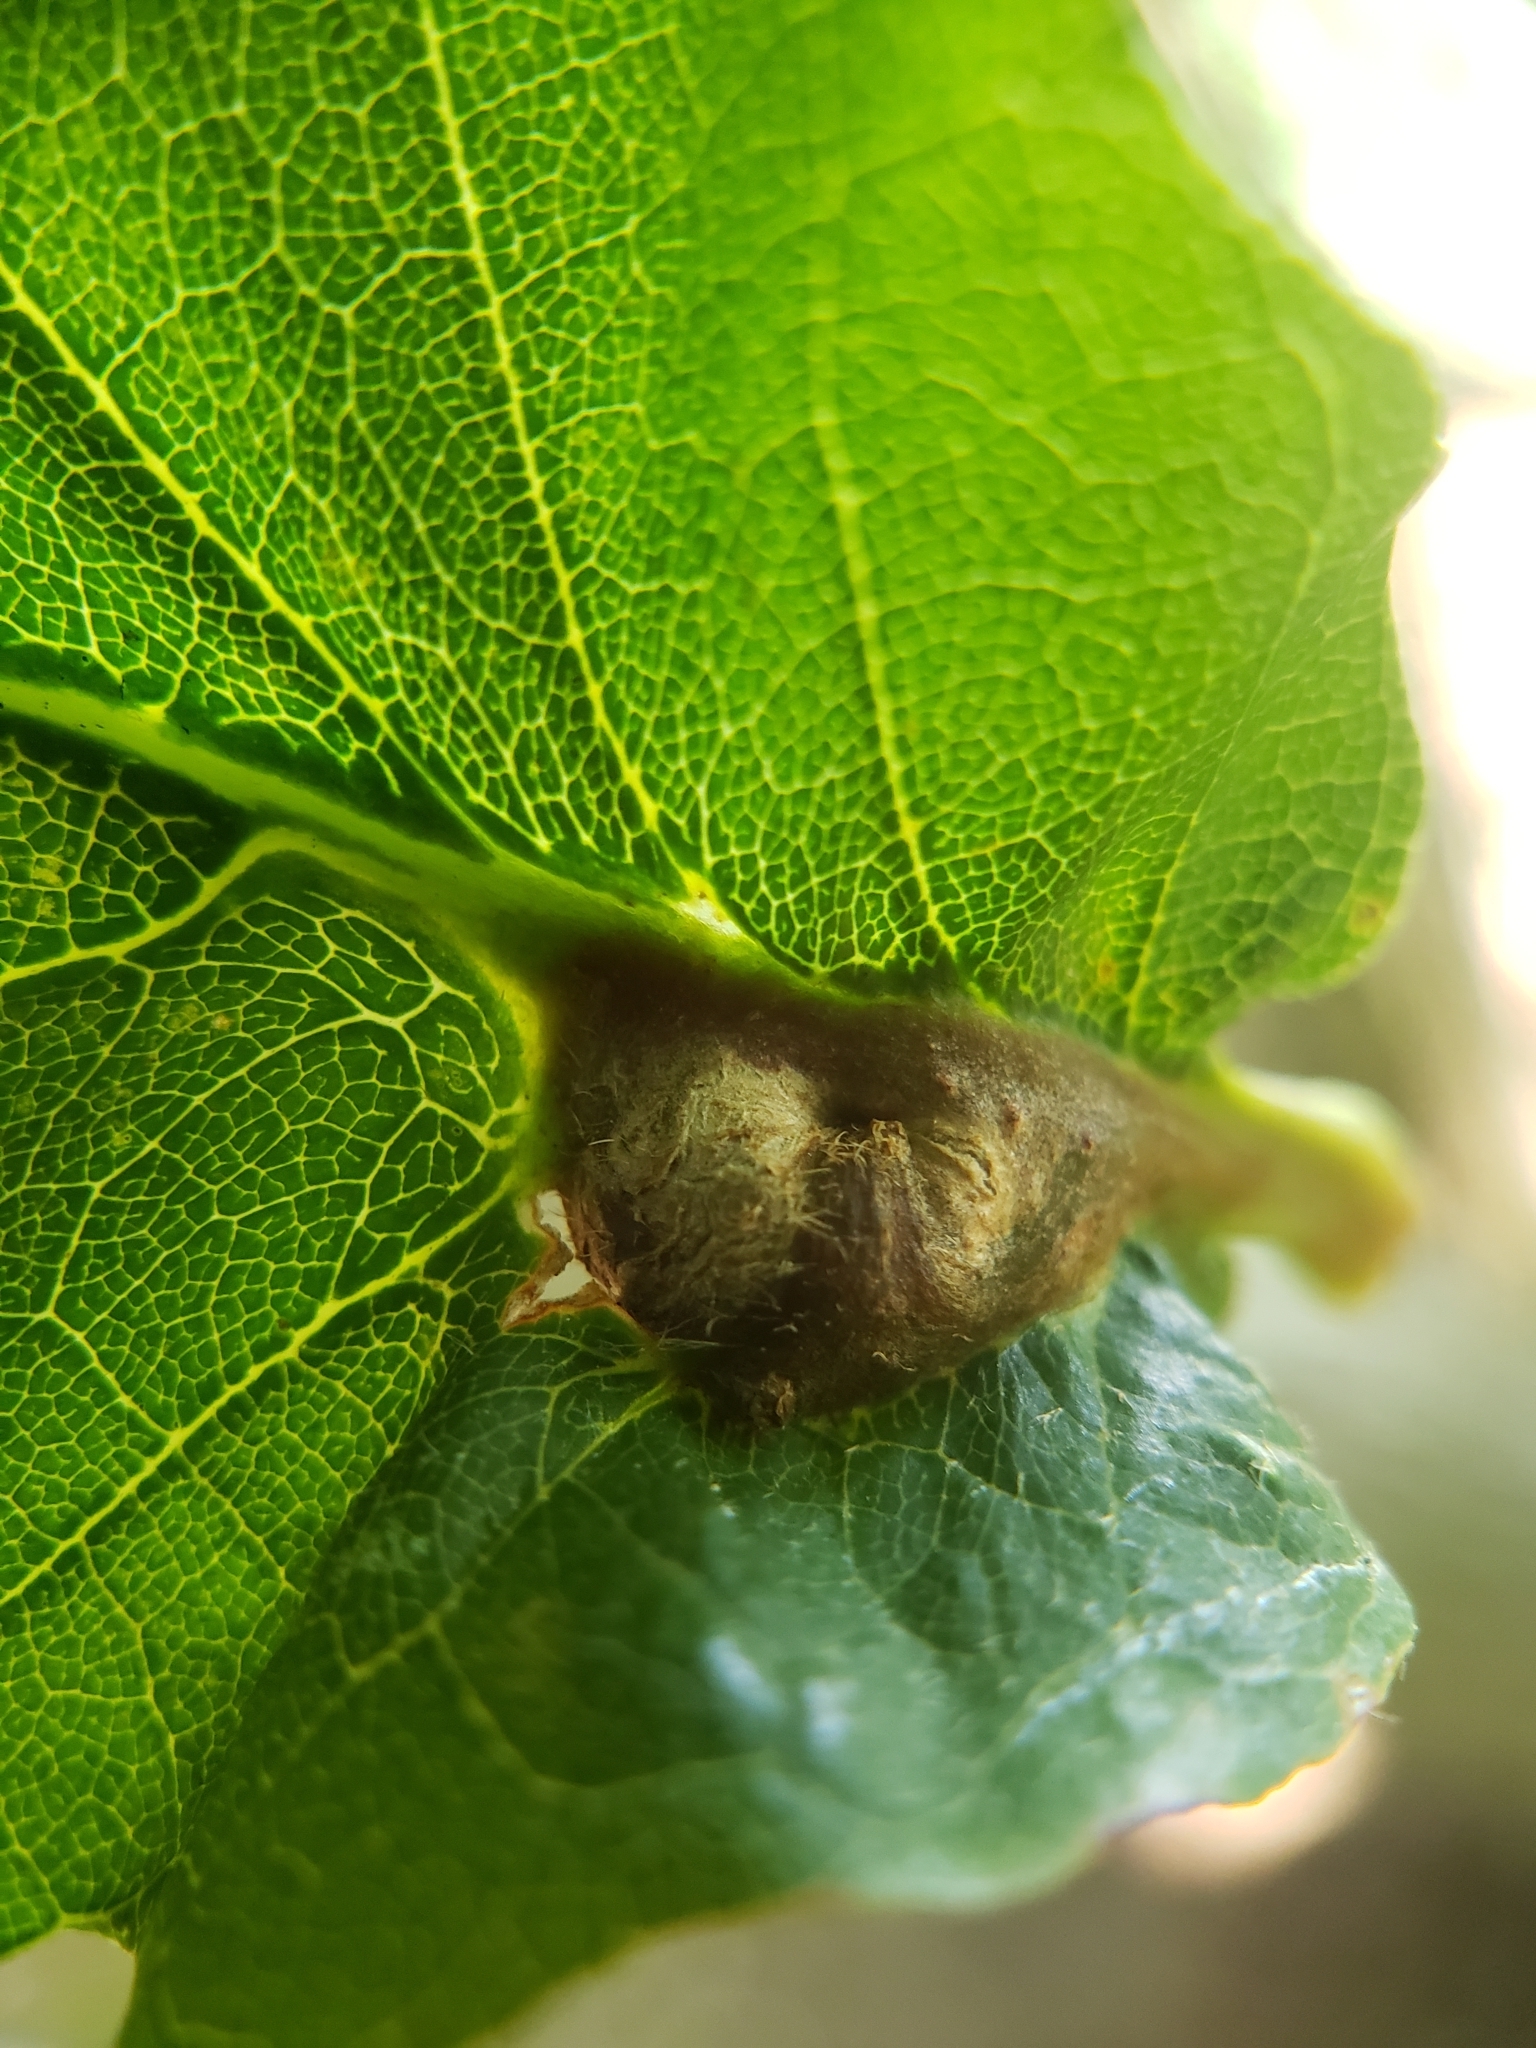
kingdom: Animalia
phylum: Arthropoda
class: Insecta
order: Hymenoptera
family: Cynipidae
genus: Andricus
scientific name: Andricus
